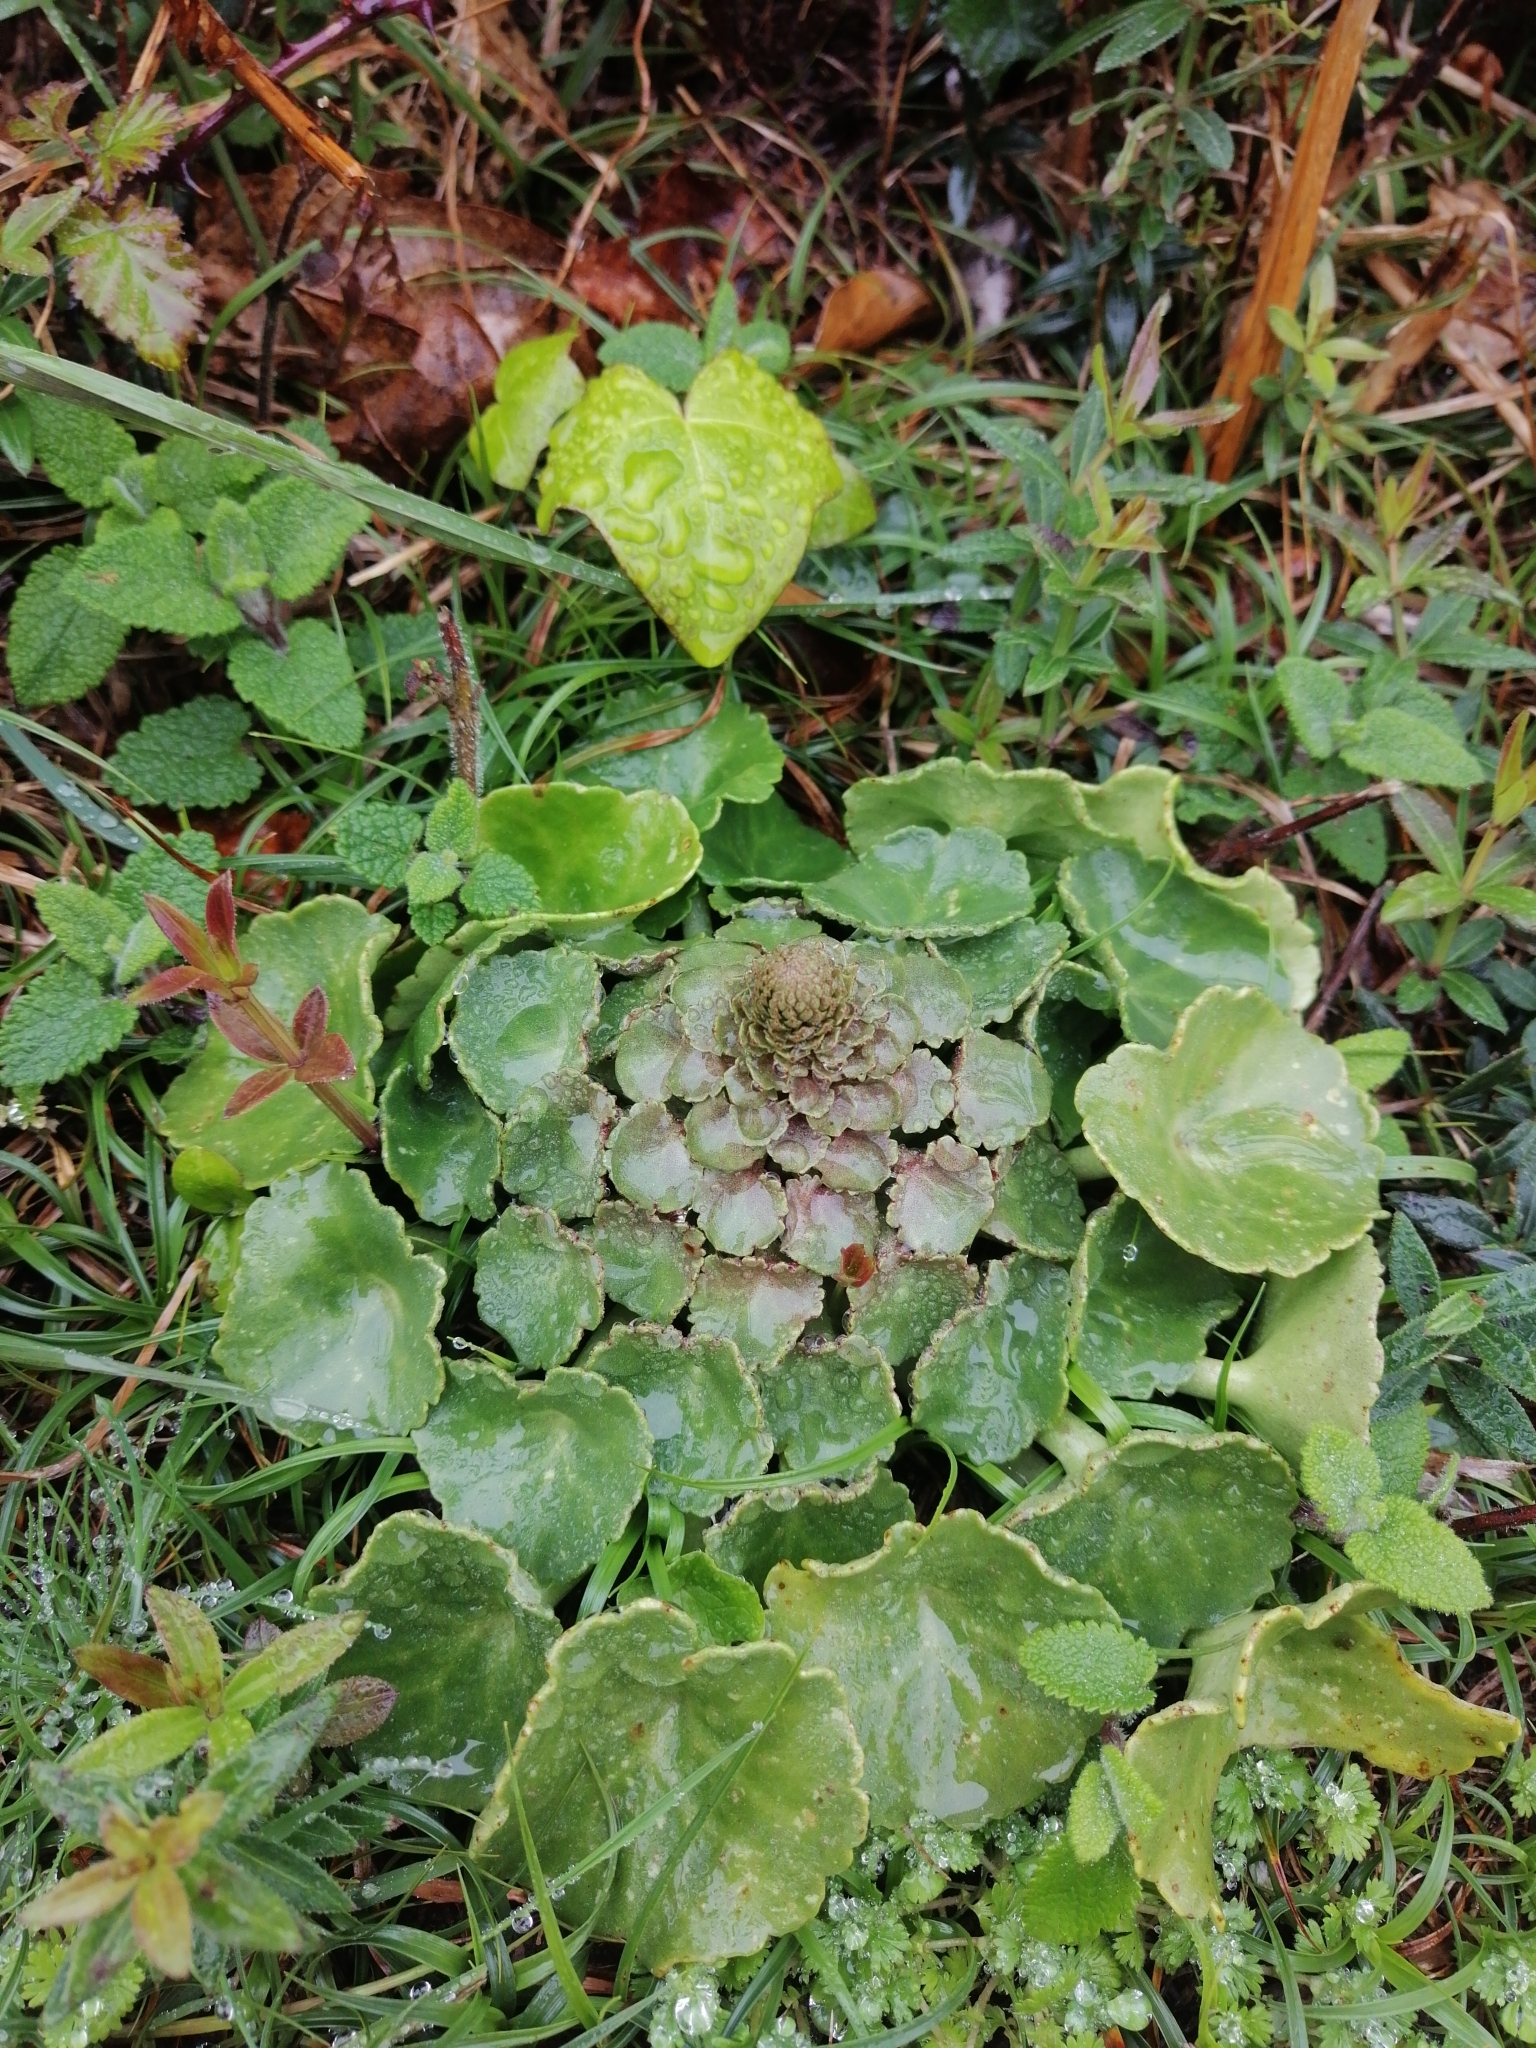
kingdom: Plantae
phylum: Tracheophyta
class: Magnoliopsida
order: Saxifragales
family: Crassulaceae
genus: Umbilicus
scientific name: Umbilicus rupestris
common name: Navelwort
